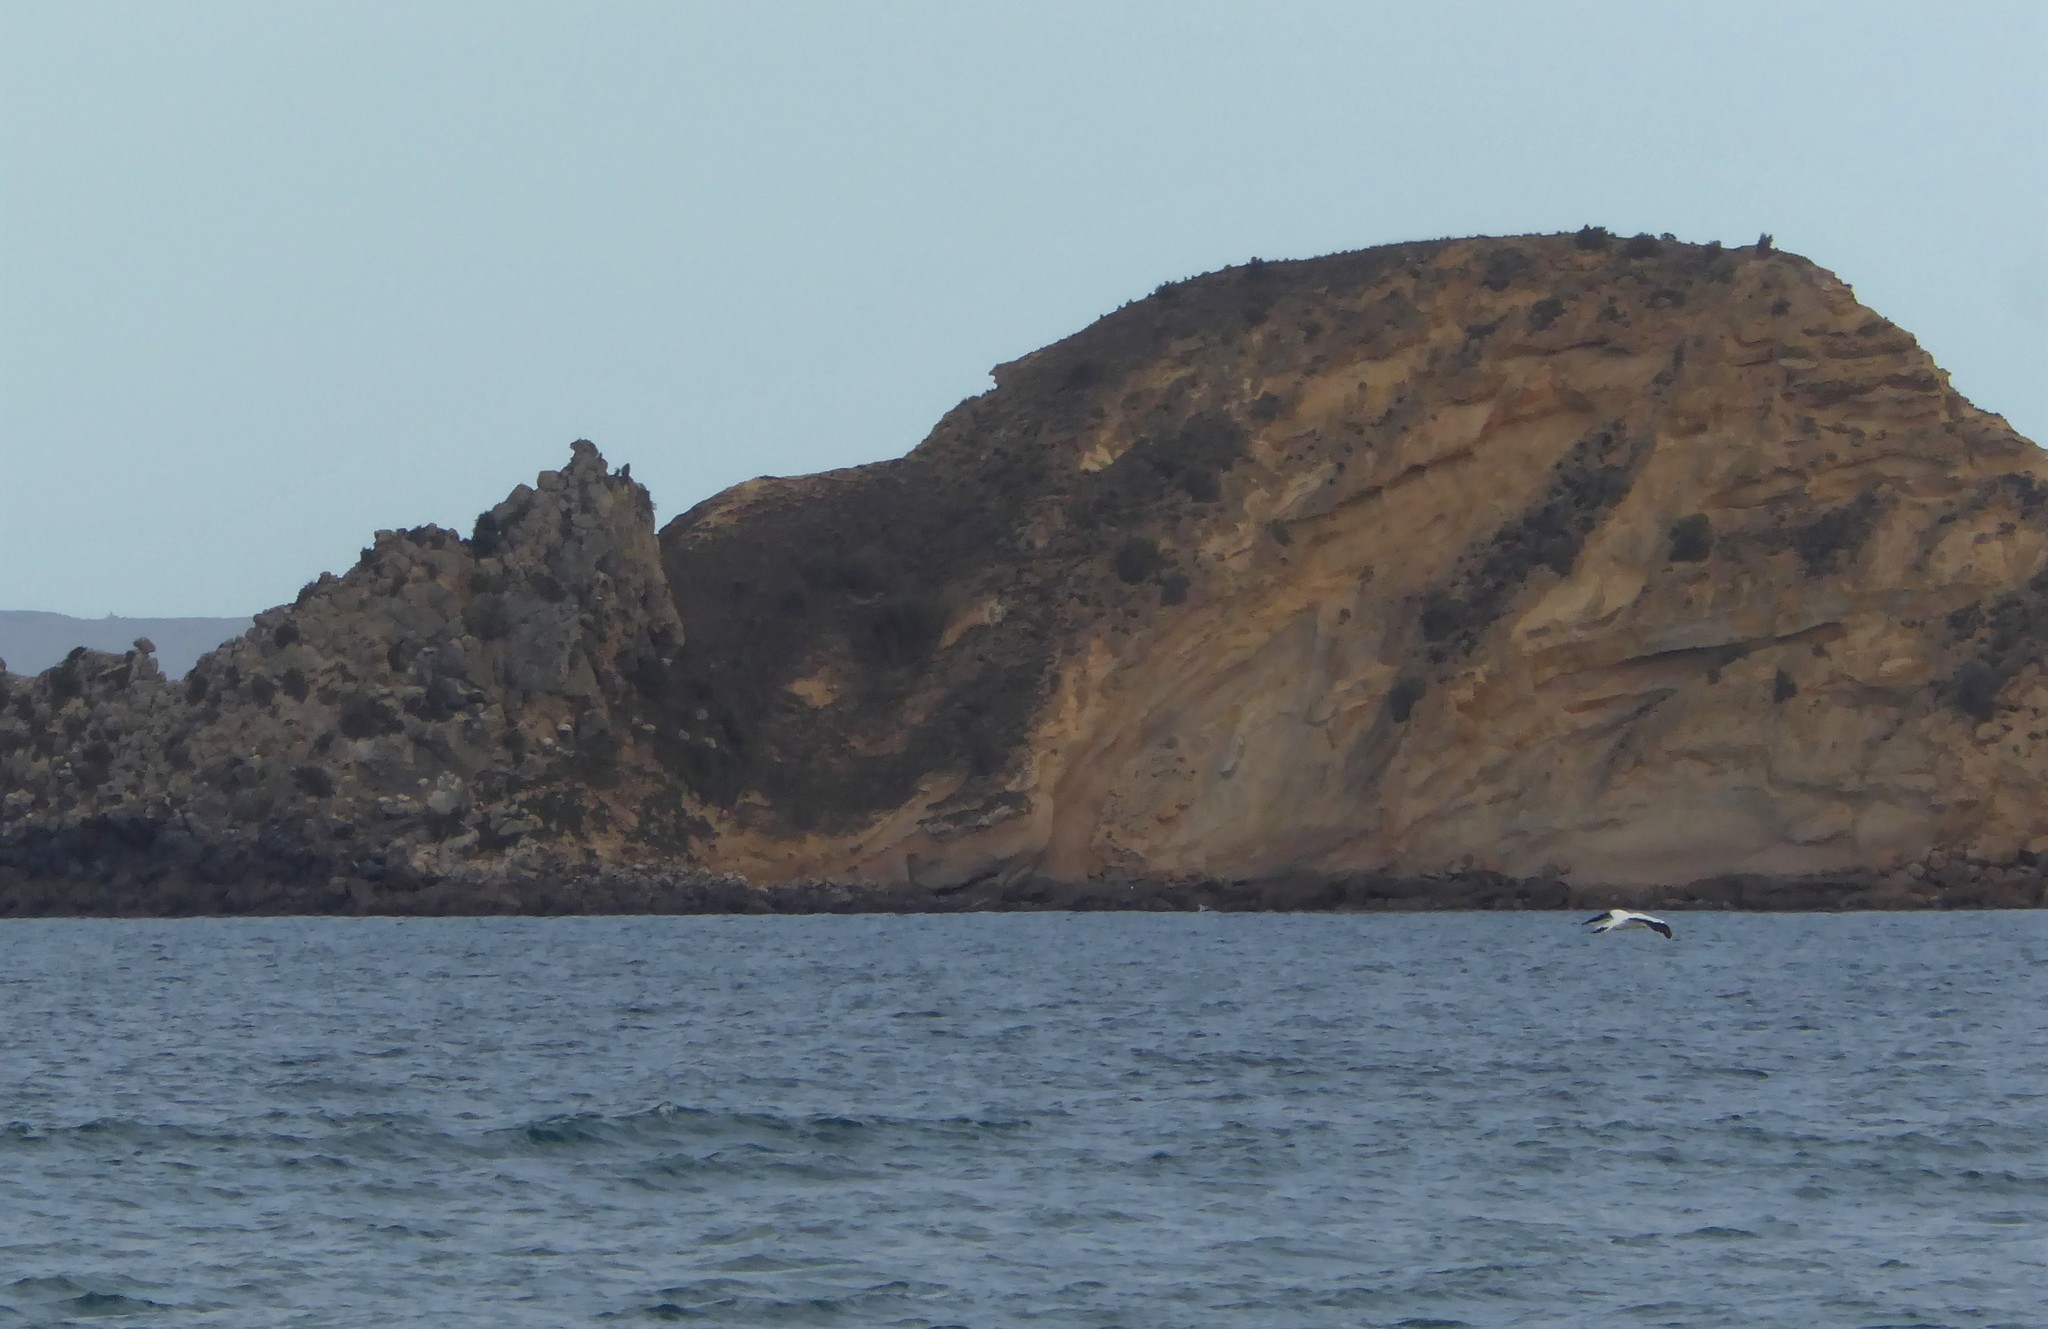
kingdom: Animalia
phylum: Chordata
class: Aves
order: Suliformes
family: Sulidae
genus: Morus
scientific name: Morus serrator
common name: Australasian gannet
